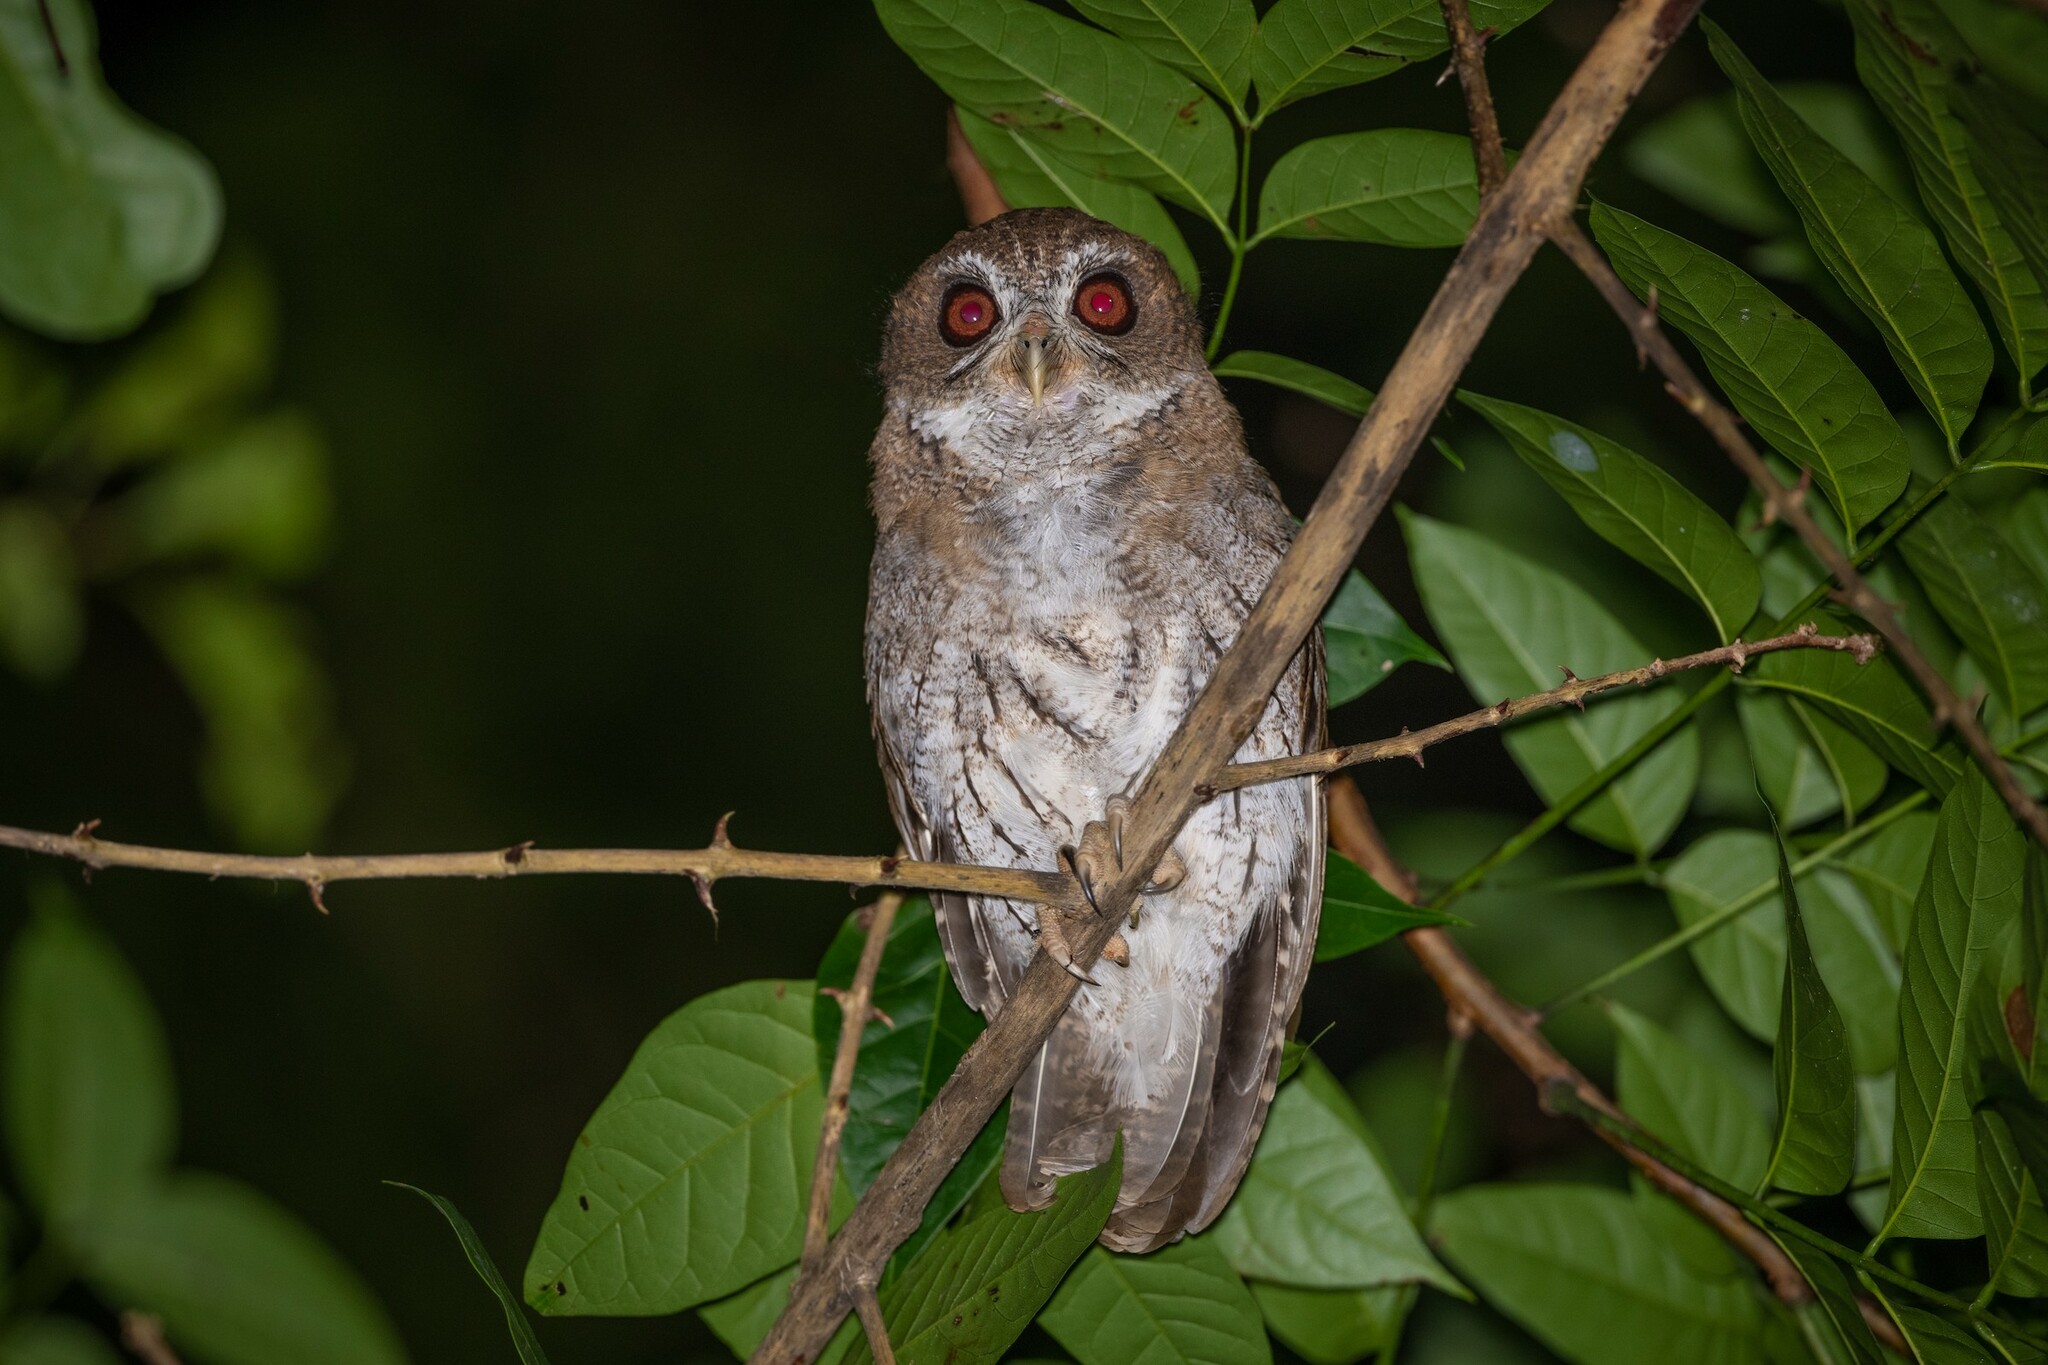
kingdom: Animalia
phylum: Chordata
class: Aves
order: Strigiformes
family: Strigidae
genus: Megascops
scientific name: Megascops nudipes
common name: Puerto rican screech-owl
